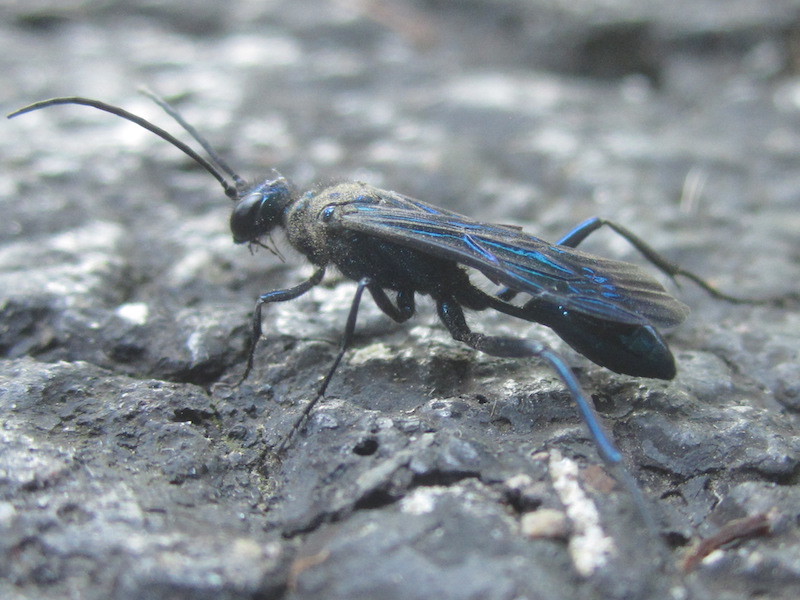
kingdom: Animalia
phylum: Arthropoda
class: Insecta
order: Hymenoptera
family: Sphecidae
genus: Chalybion
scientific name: Chalybion californicum
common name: Mud dauber
